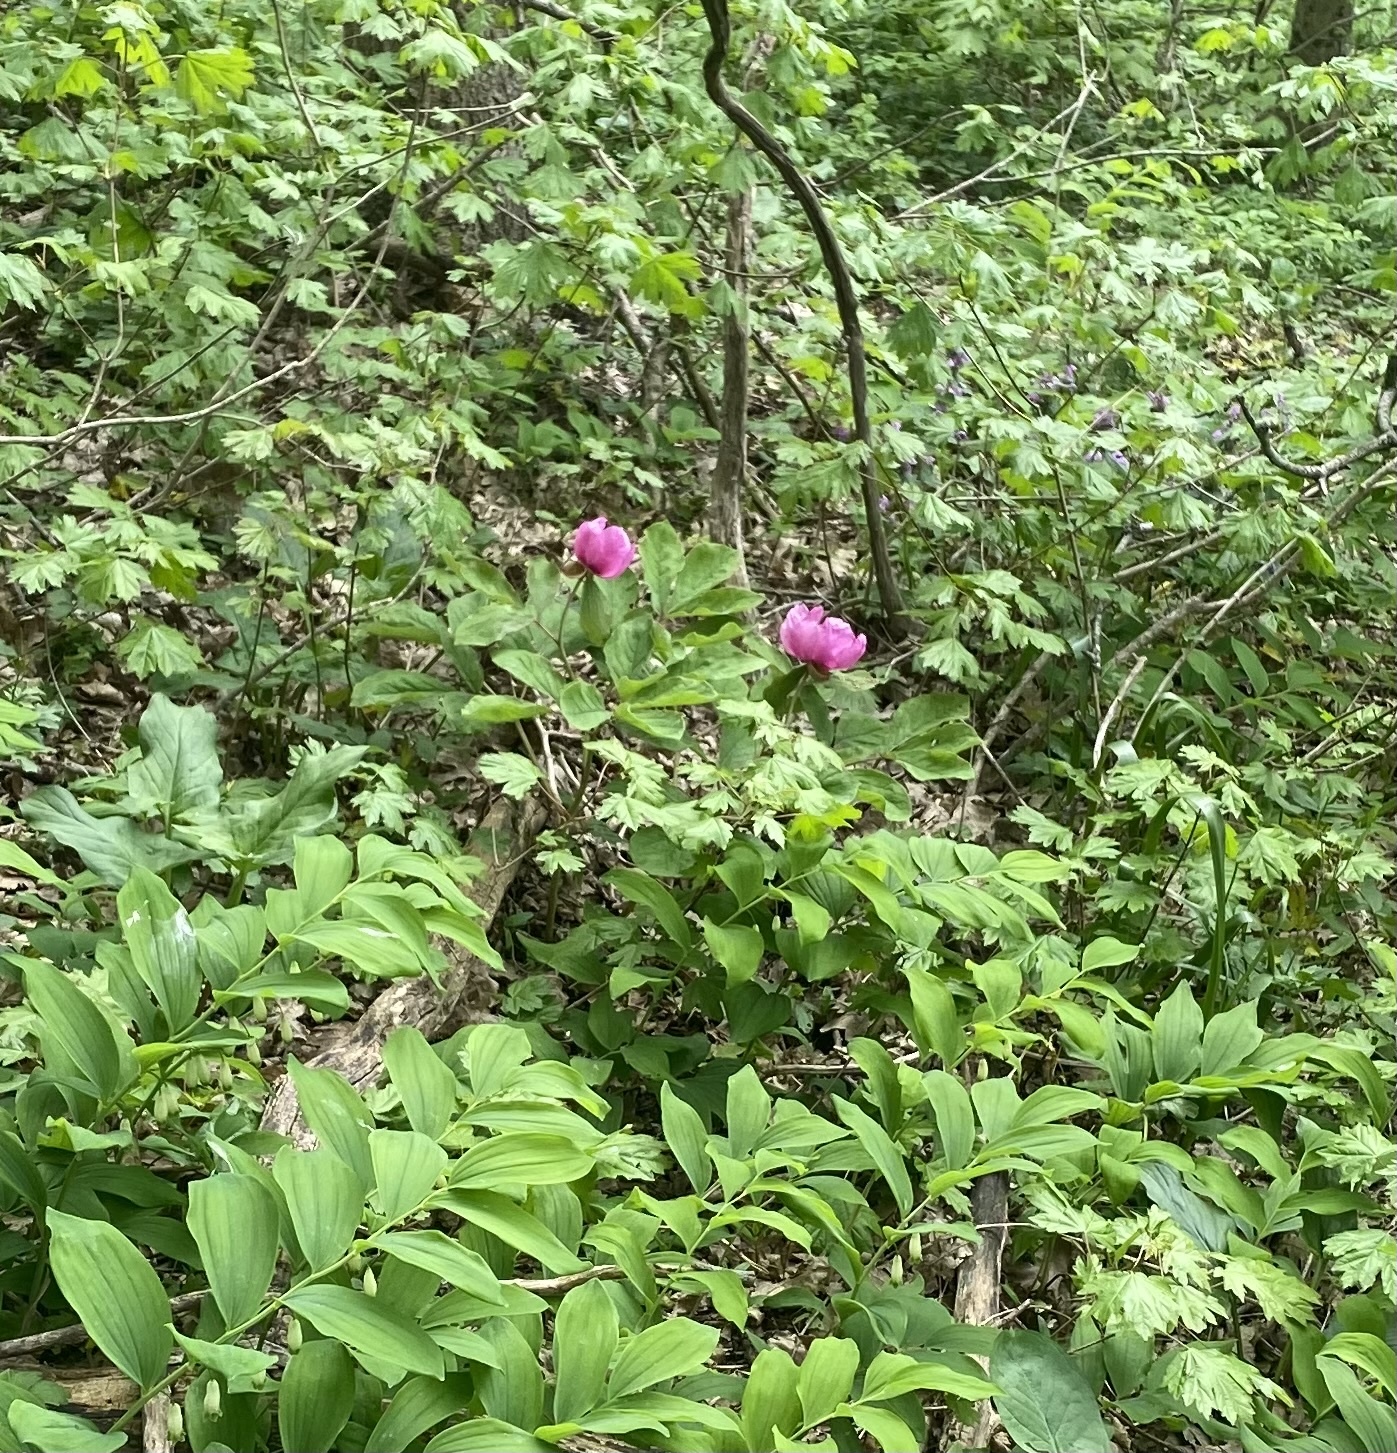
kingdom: Plantae
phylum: Tracheophyta
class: Magnoliopsida
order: Saxifragales
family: Paeoniaceae
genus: Paeonia
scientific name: Paeonia caucasica
